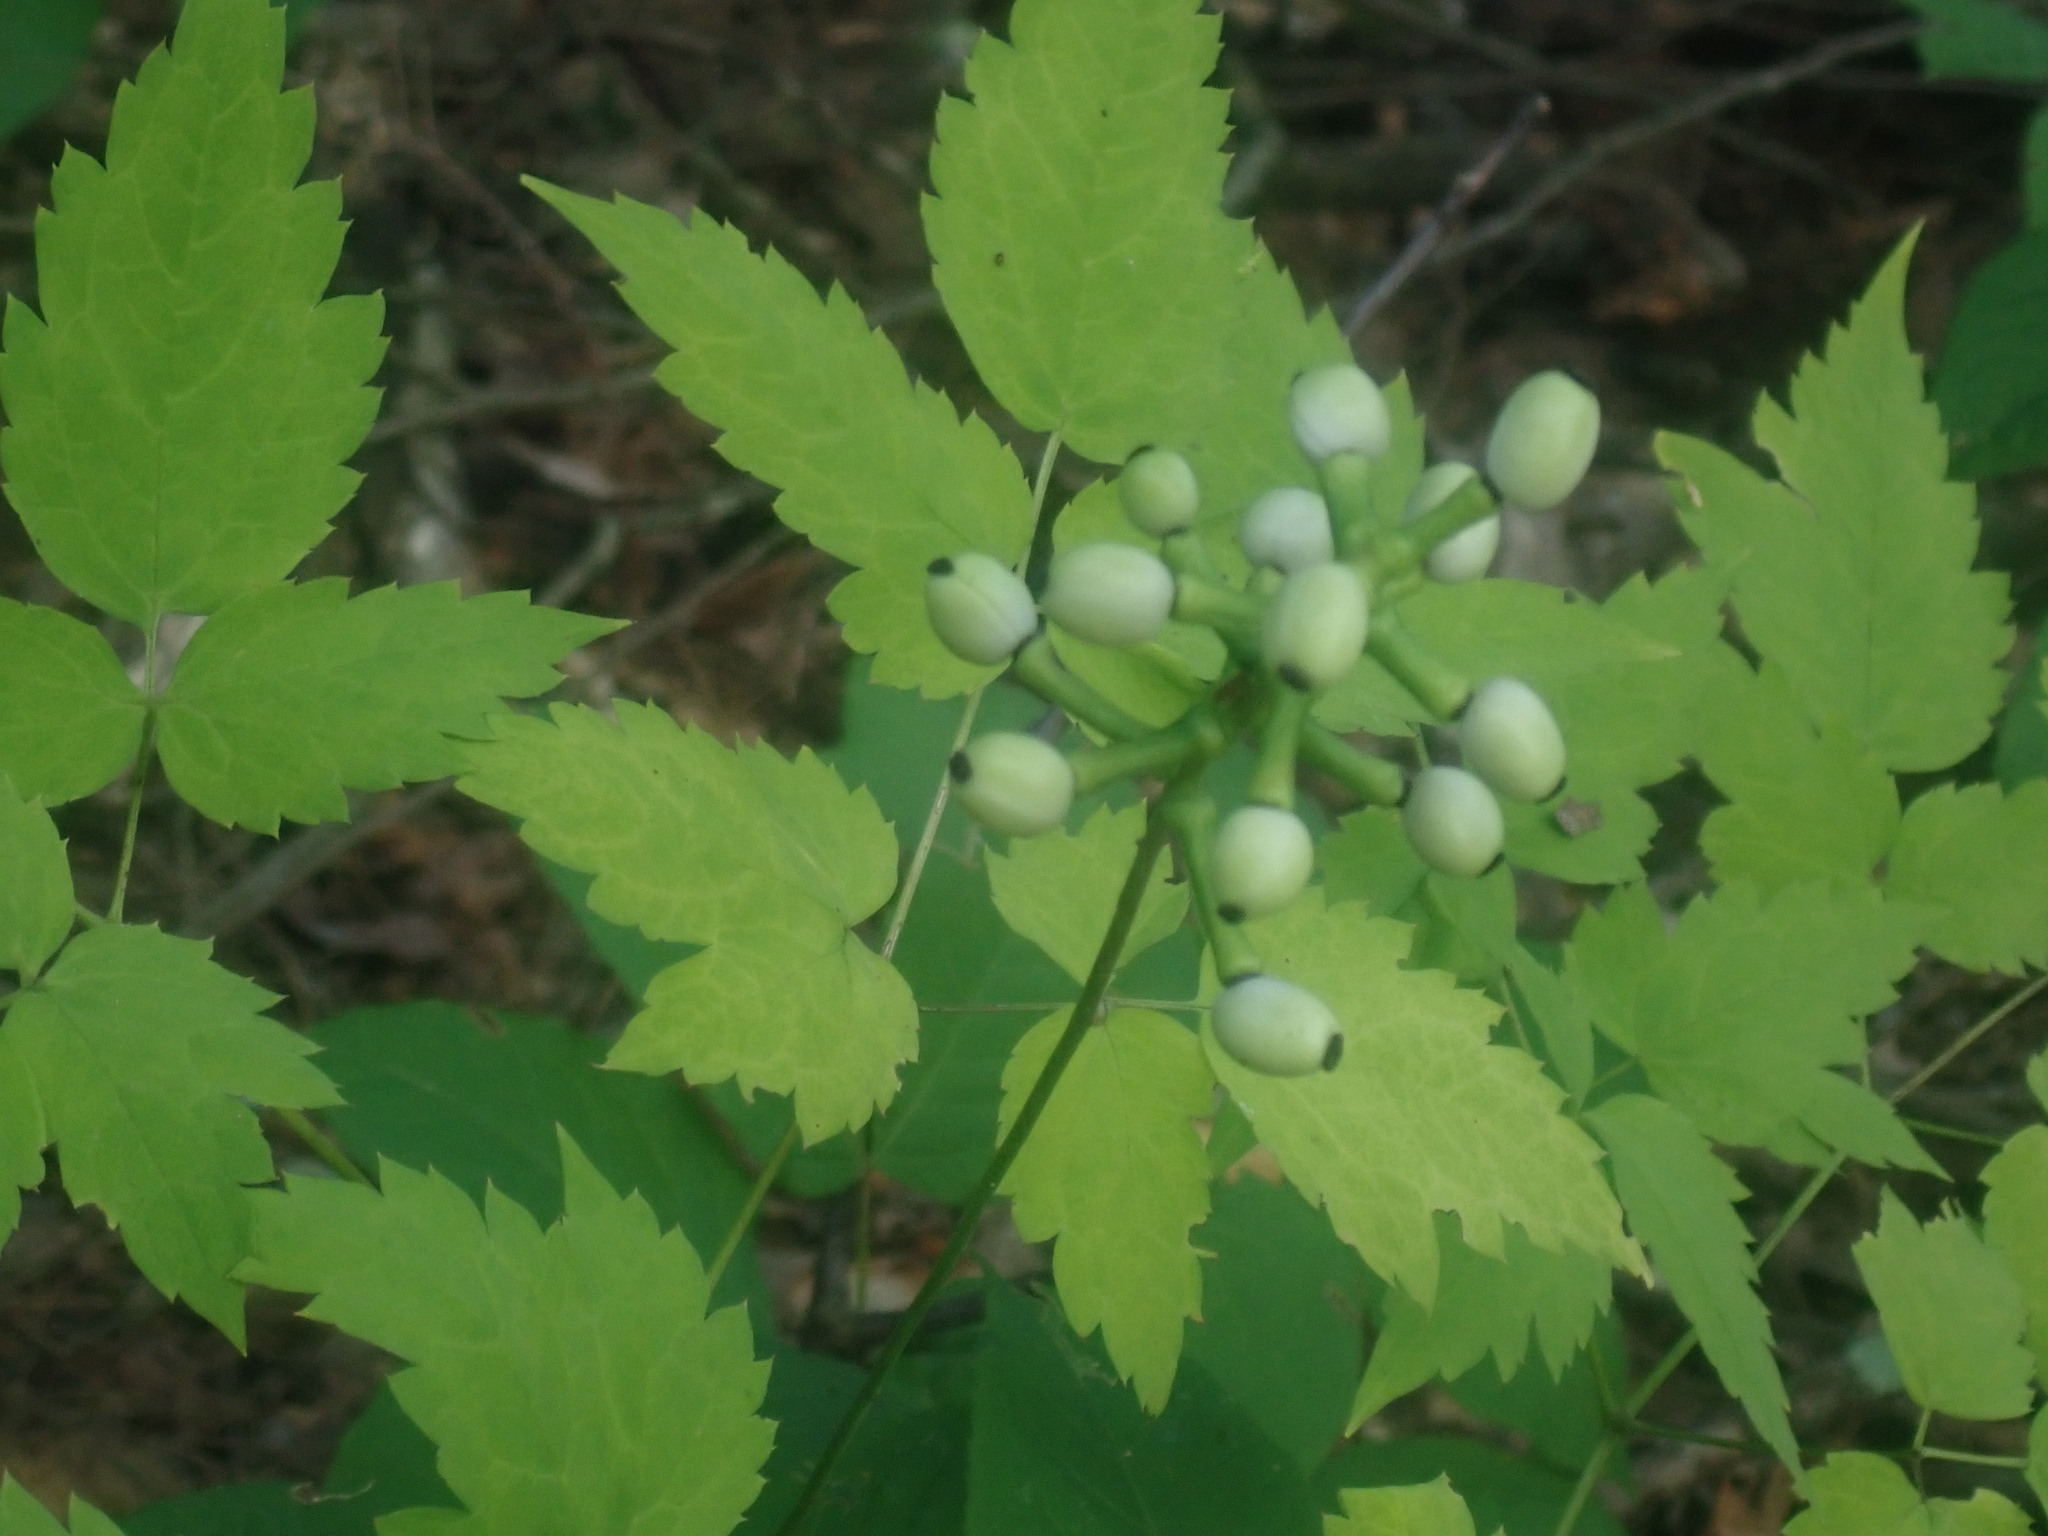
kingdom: Plantae
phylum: Tracheophyta
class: Magnoliopsida
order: Ranunculales
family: Ranunculaceae
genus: Actaea
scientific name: Actaea pachypoda
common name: Doll's-eyes
